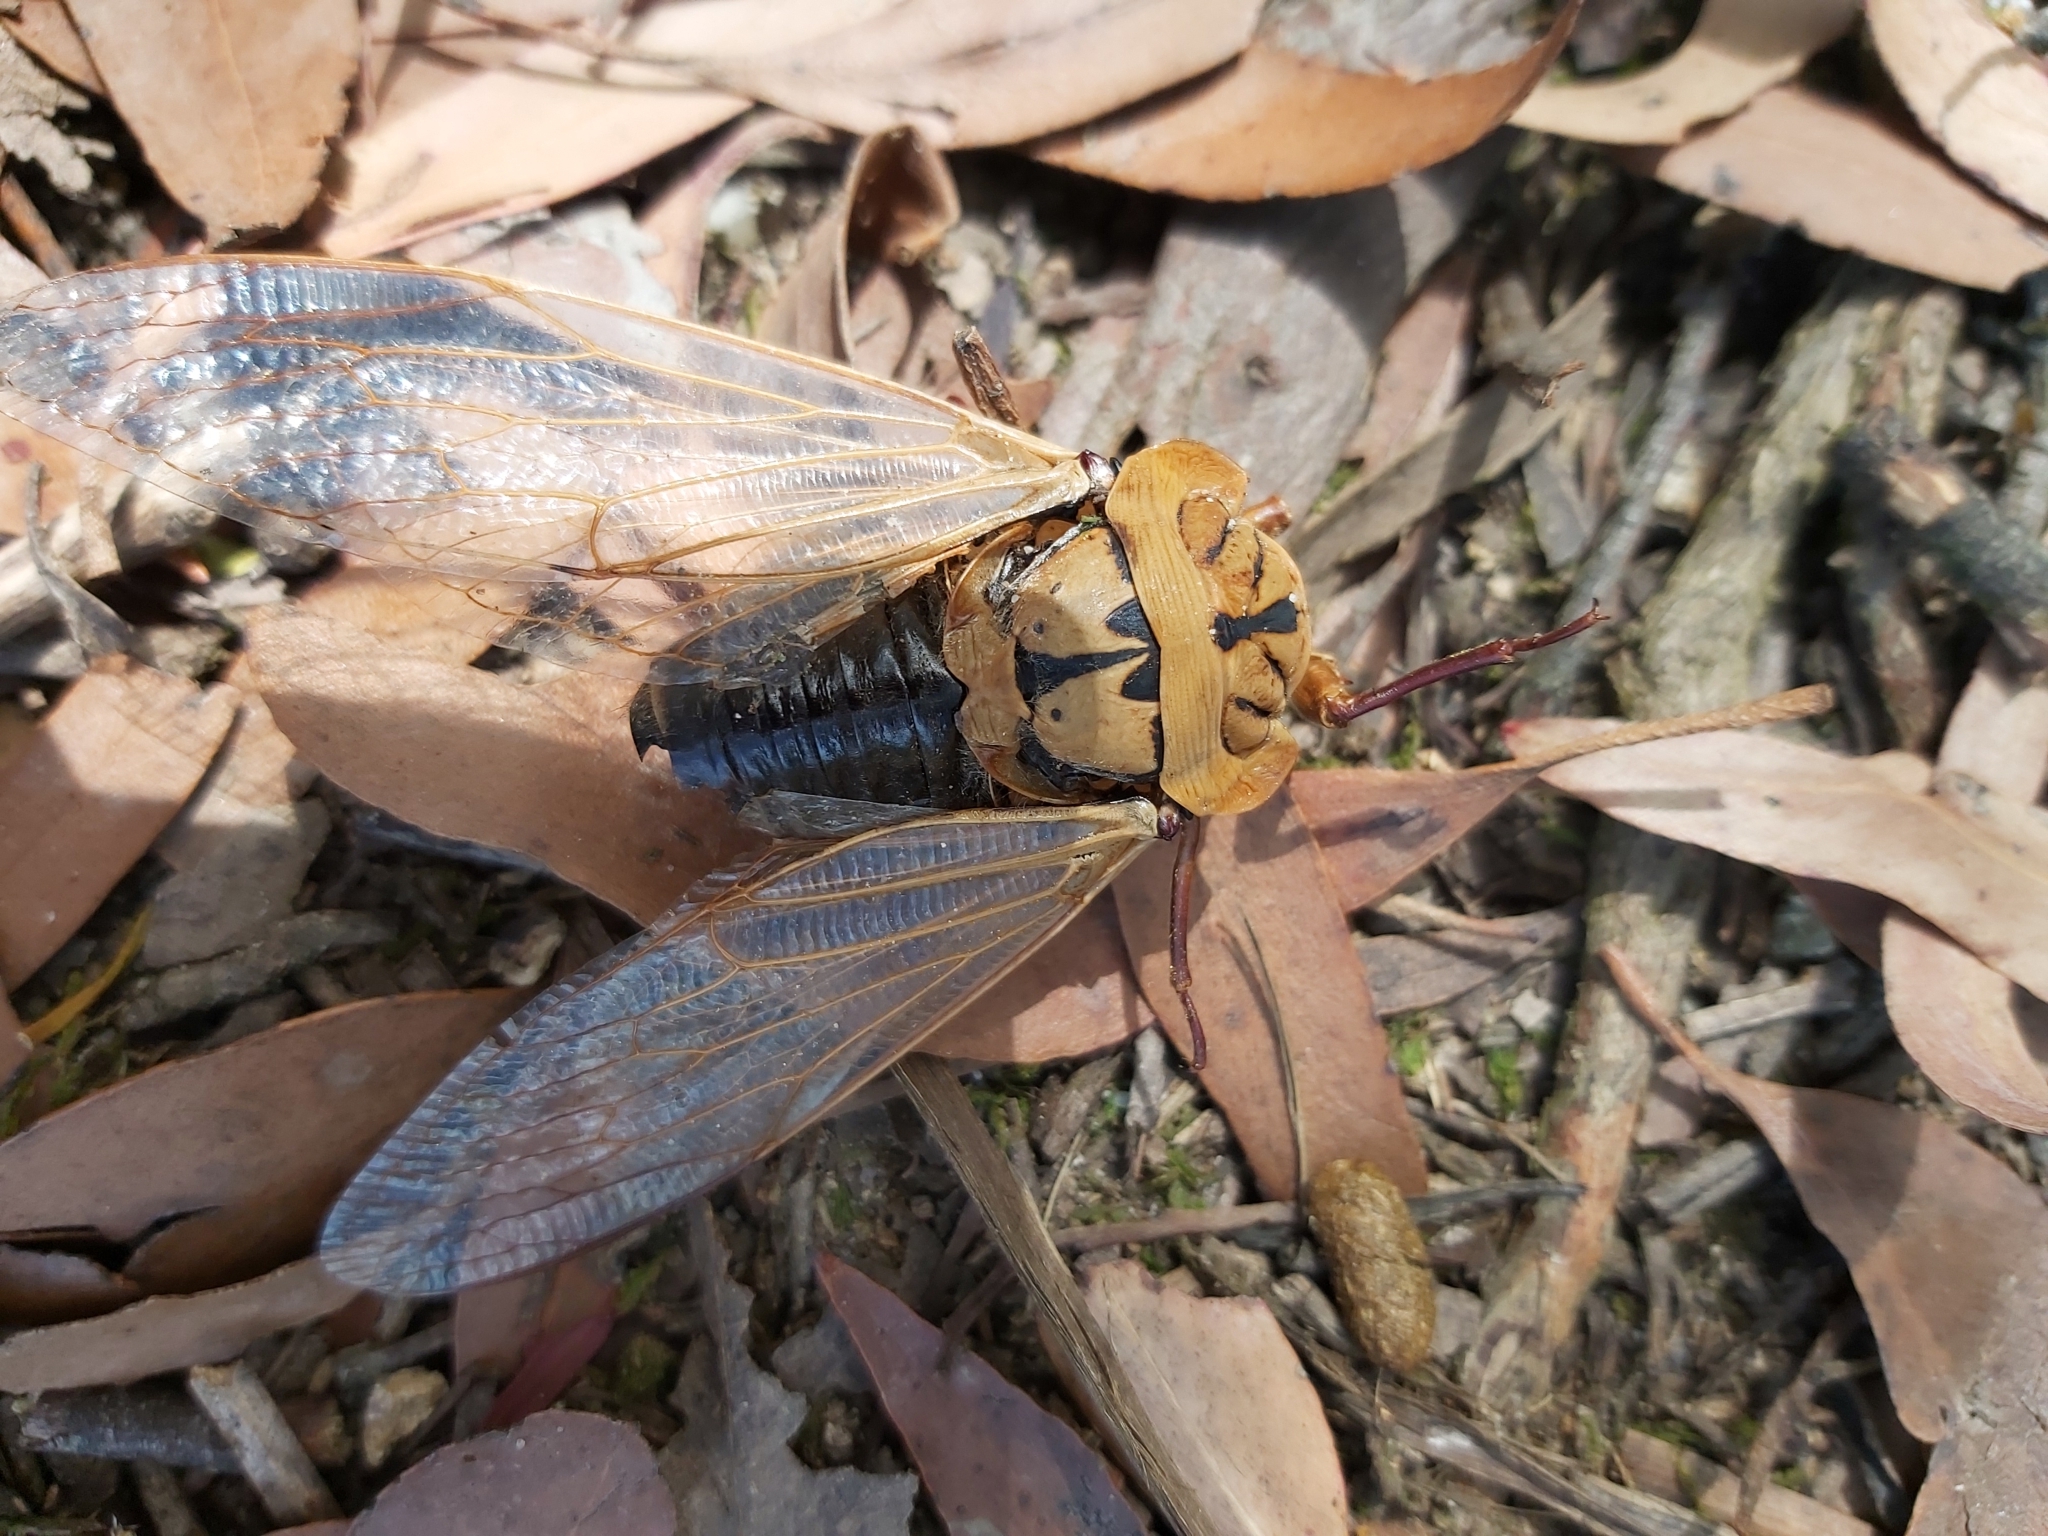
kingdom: Animalia
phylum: Arthropoda
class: Insecta
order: Hemiptera
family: Cicadidae
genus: Cyclochila
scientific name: Cyclochila australasiae
